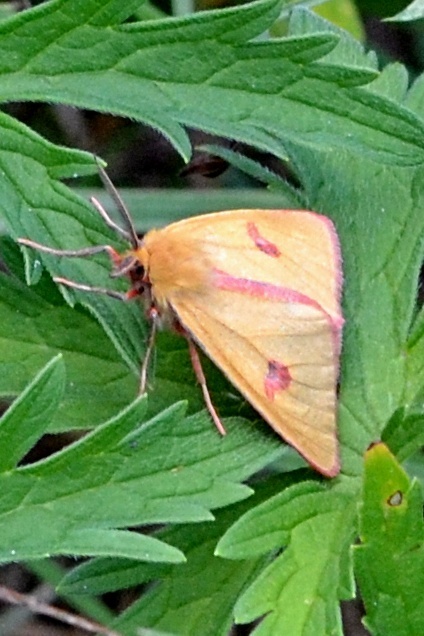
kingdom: Animalia
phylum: Arthropoda
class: Insecta
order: Lepidoptera
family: Erebidae
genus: Diacrisia
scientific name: Diacrisia sannio
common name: Clouded buff
